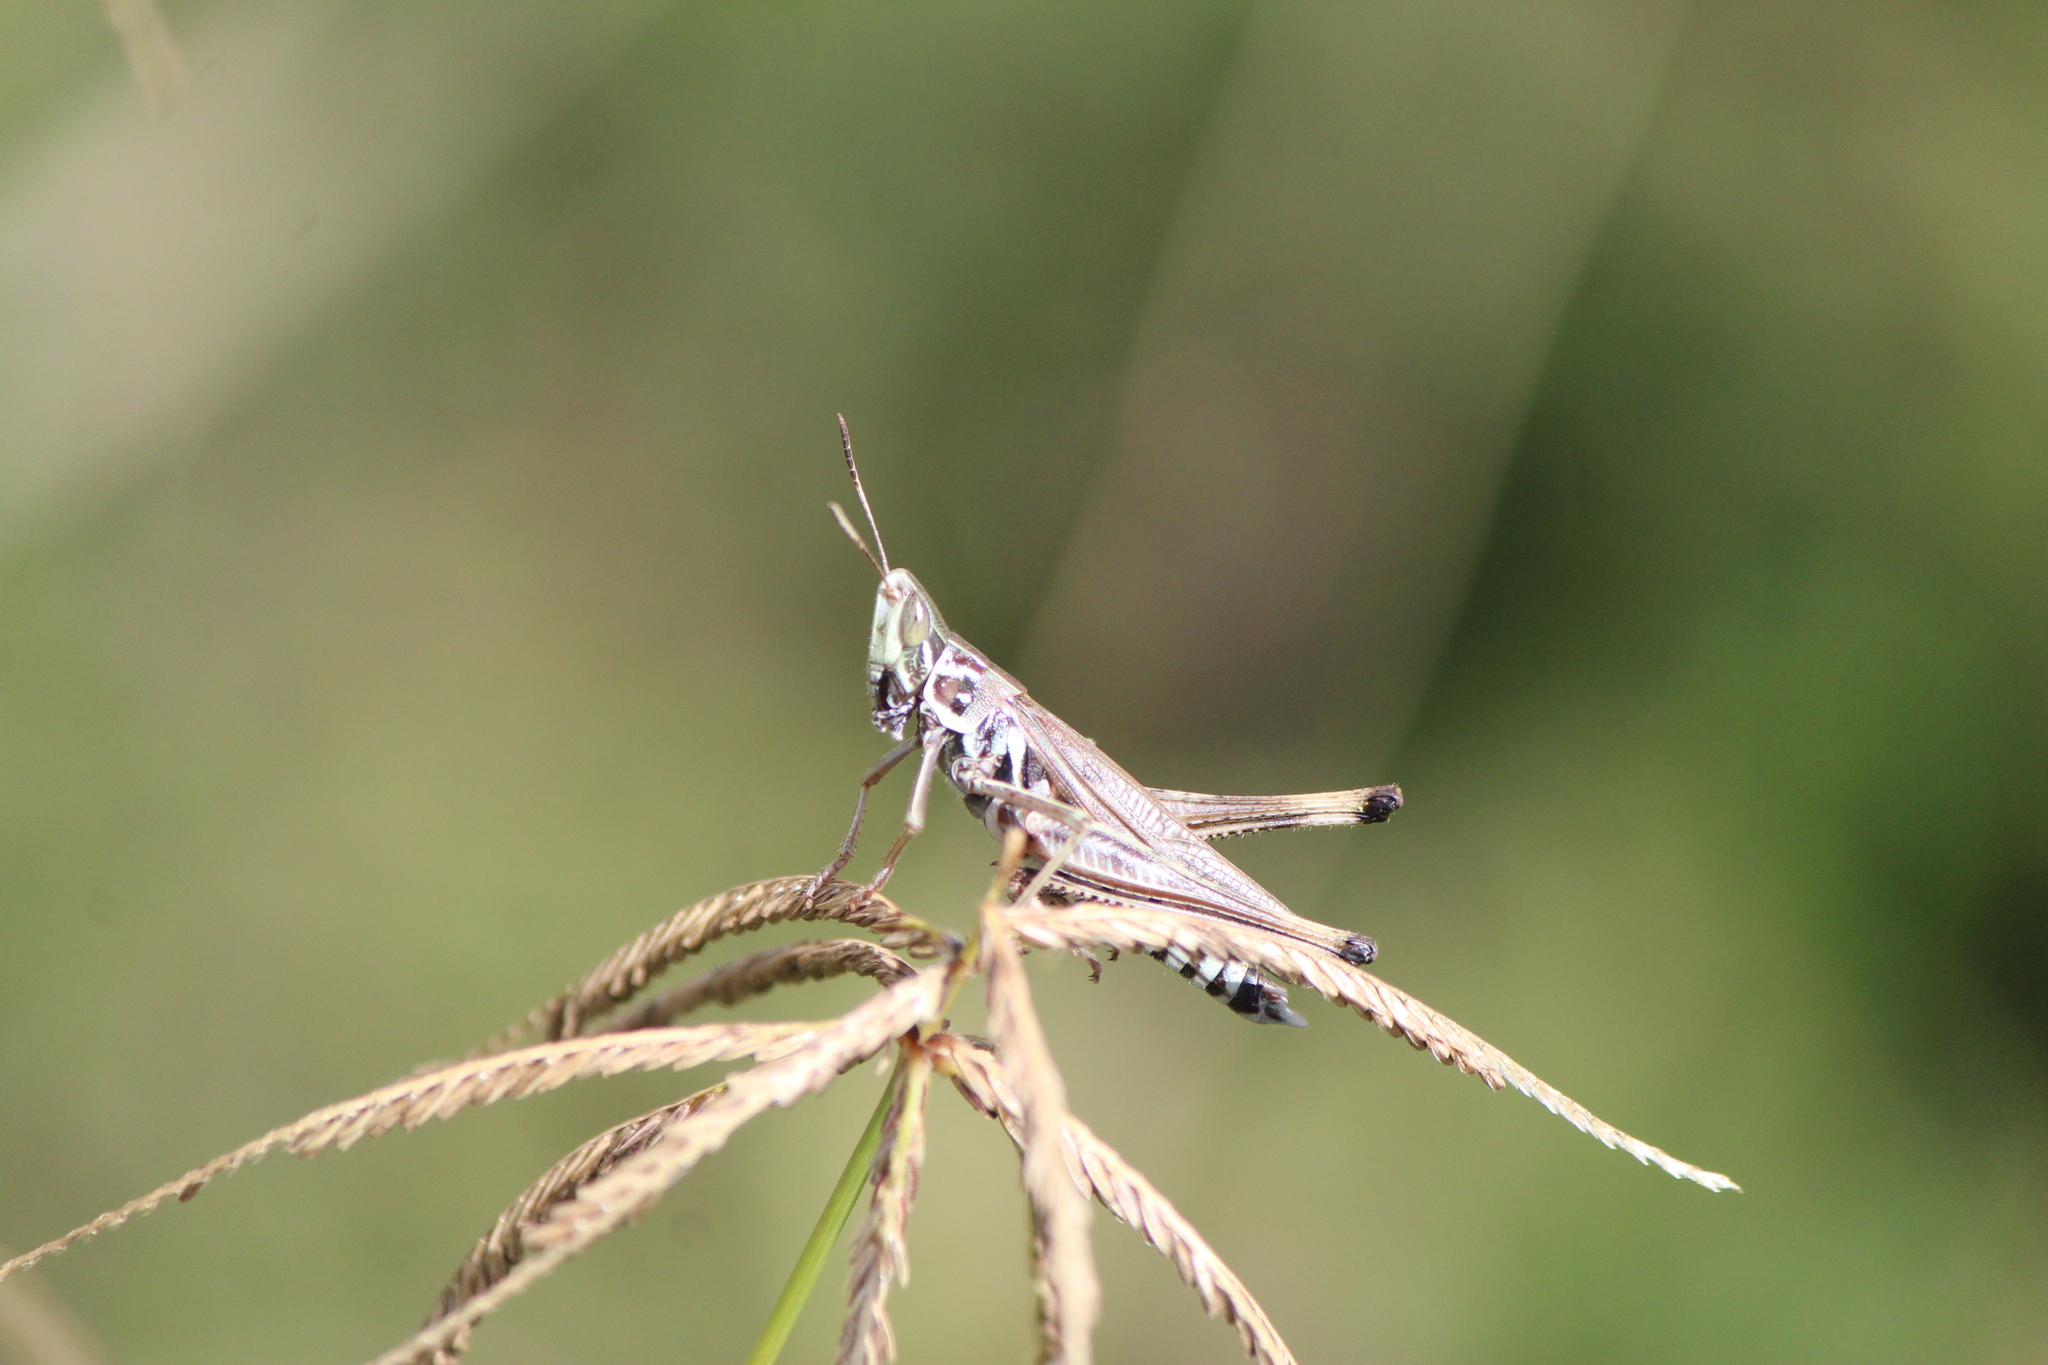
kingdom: Animalia
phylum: Arthropoda
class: Insecta
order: Orthoptera
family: Acrididae
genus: Syrbula
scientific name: Syrbula admirabilis
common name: Handsome grasshopper
